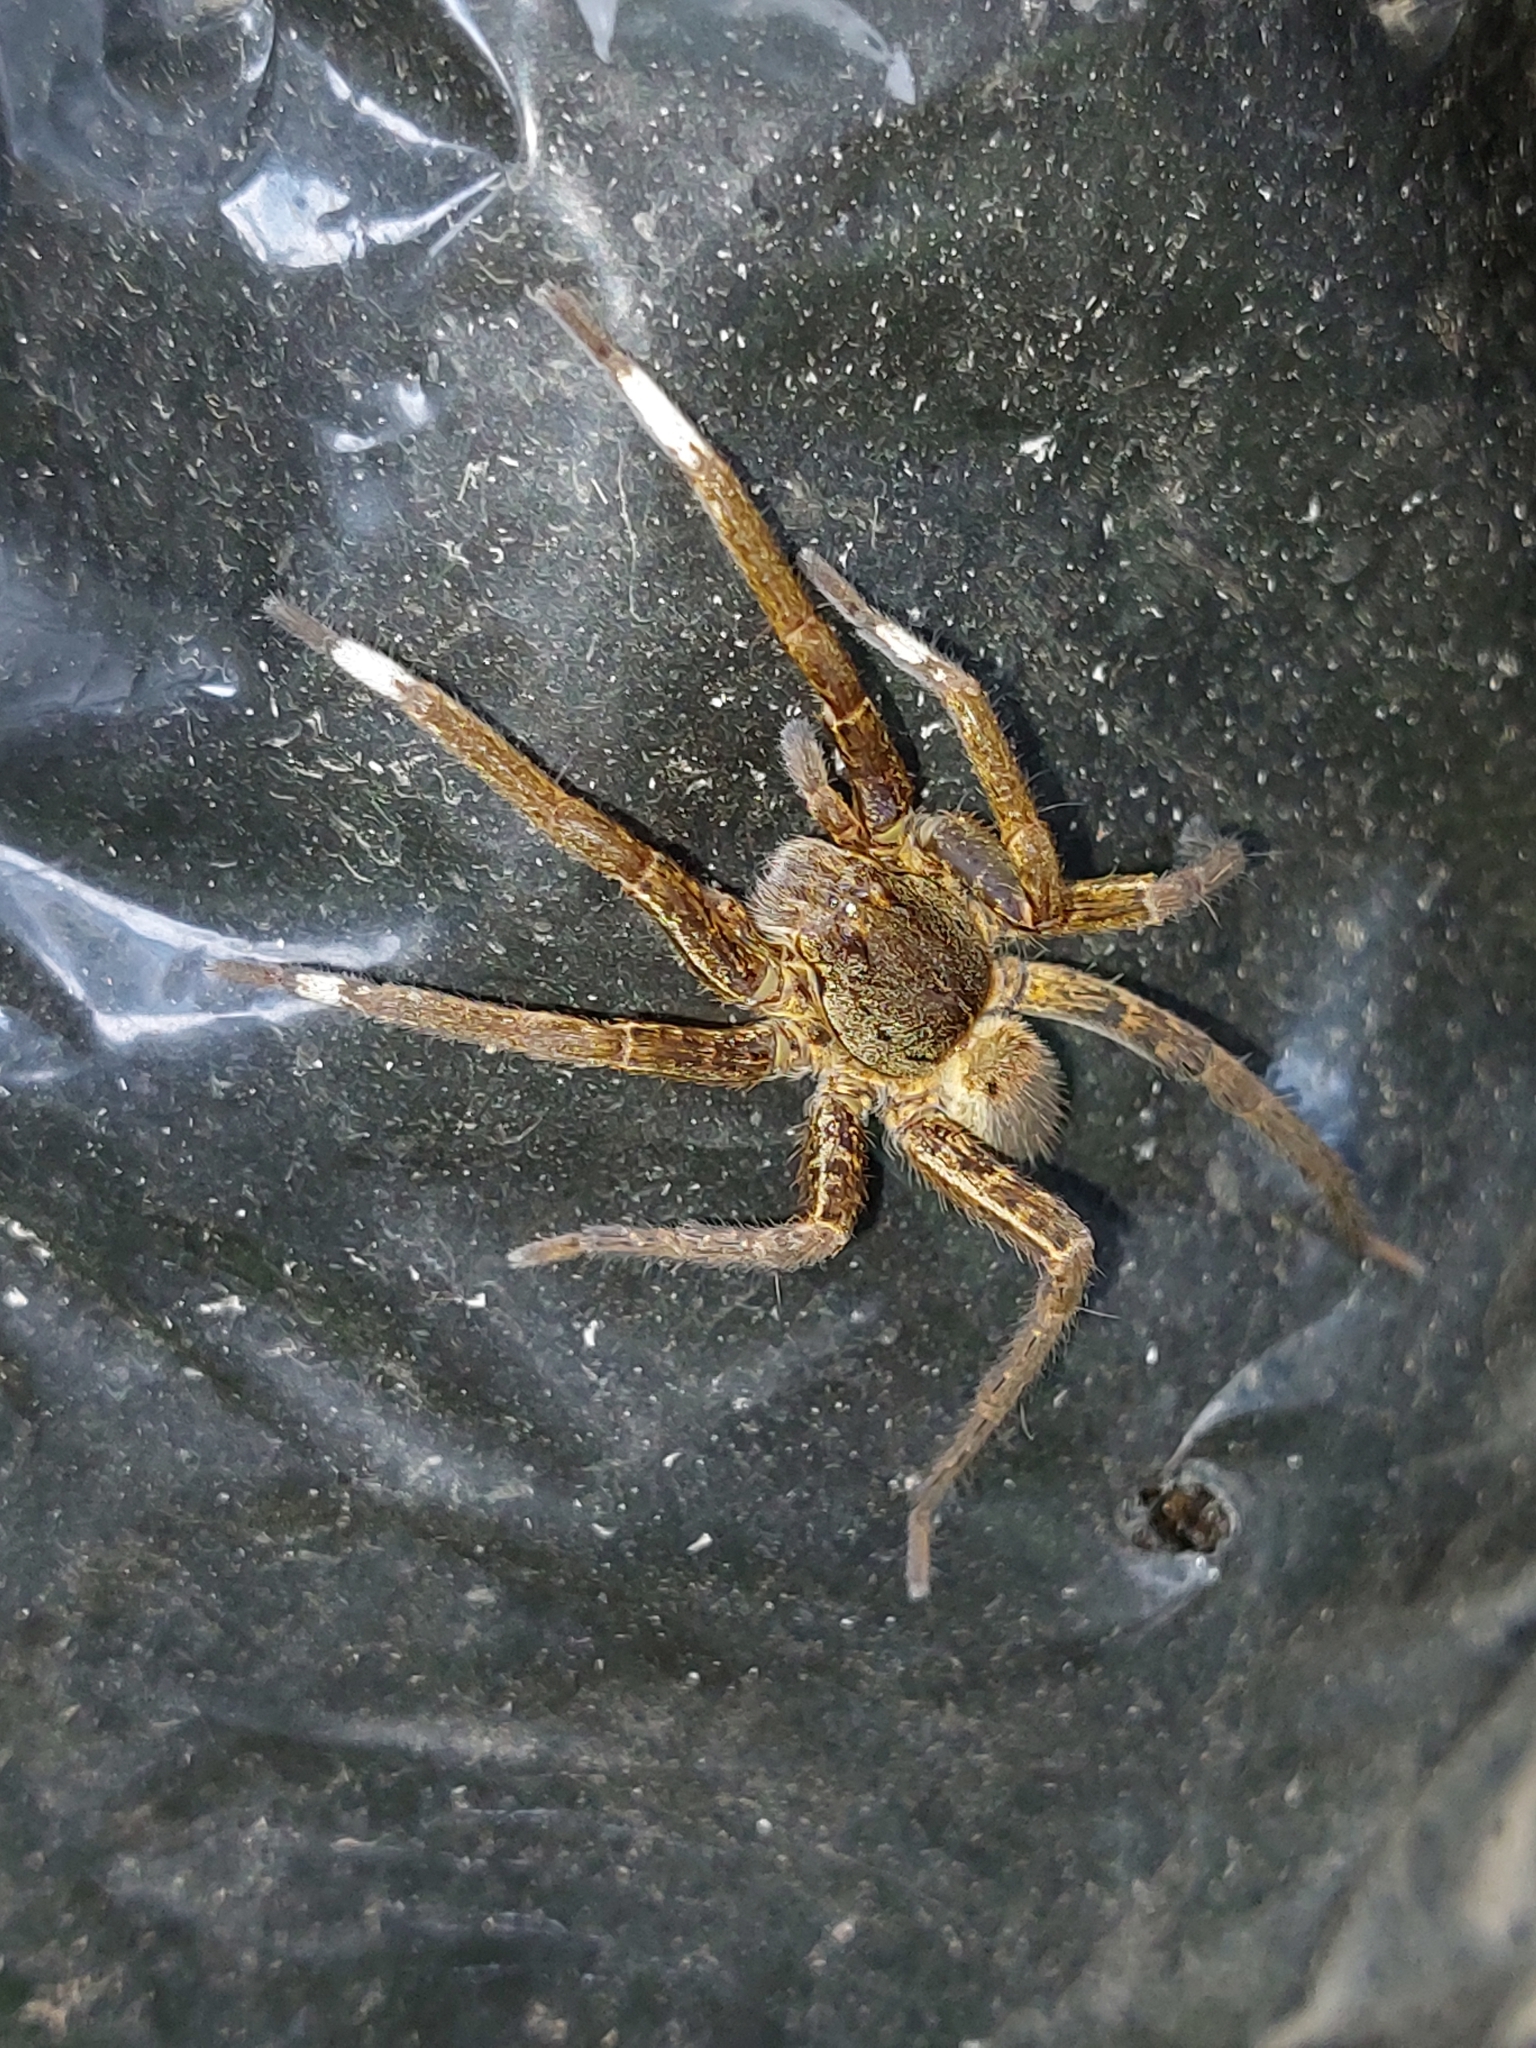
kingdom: Animalia
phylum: Arthropoda
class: Arachnida
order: Araneae
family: Ctenidae
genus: Ancylometes
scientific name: Ancylometes bogotensis
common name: Wandering spiders
